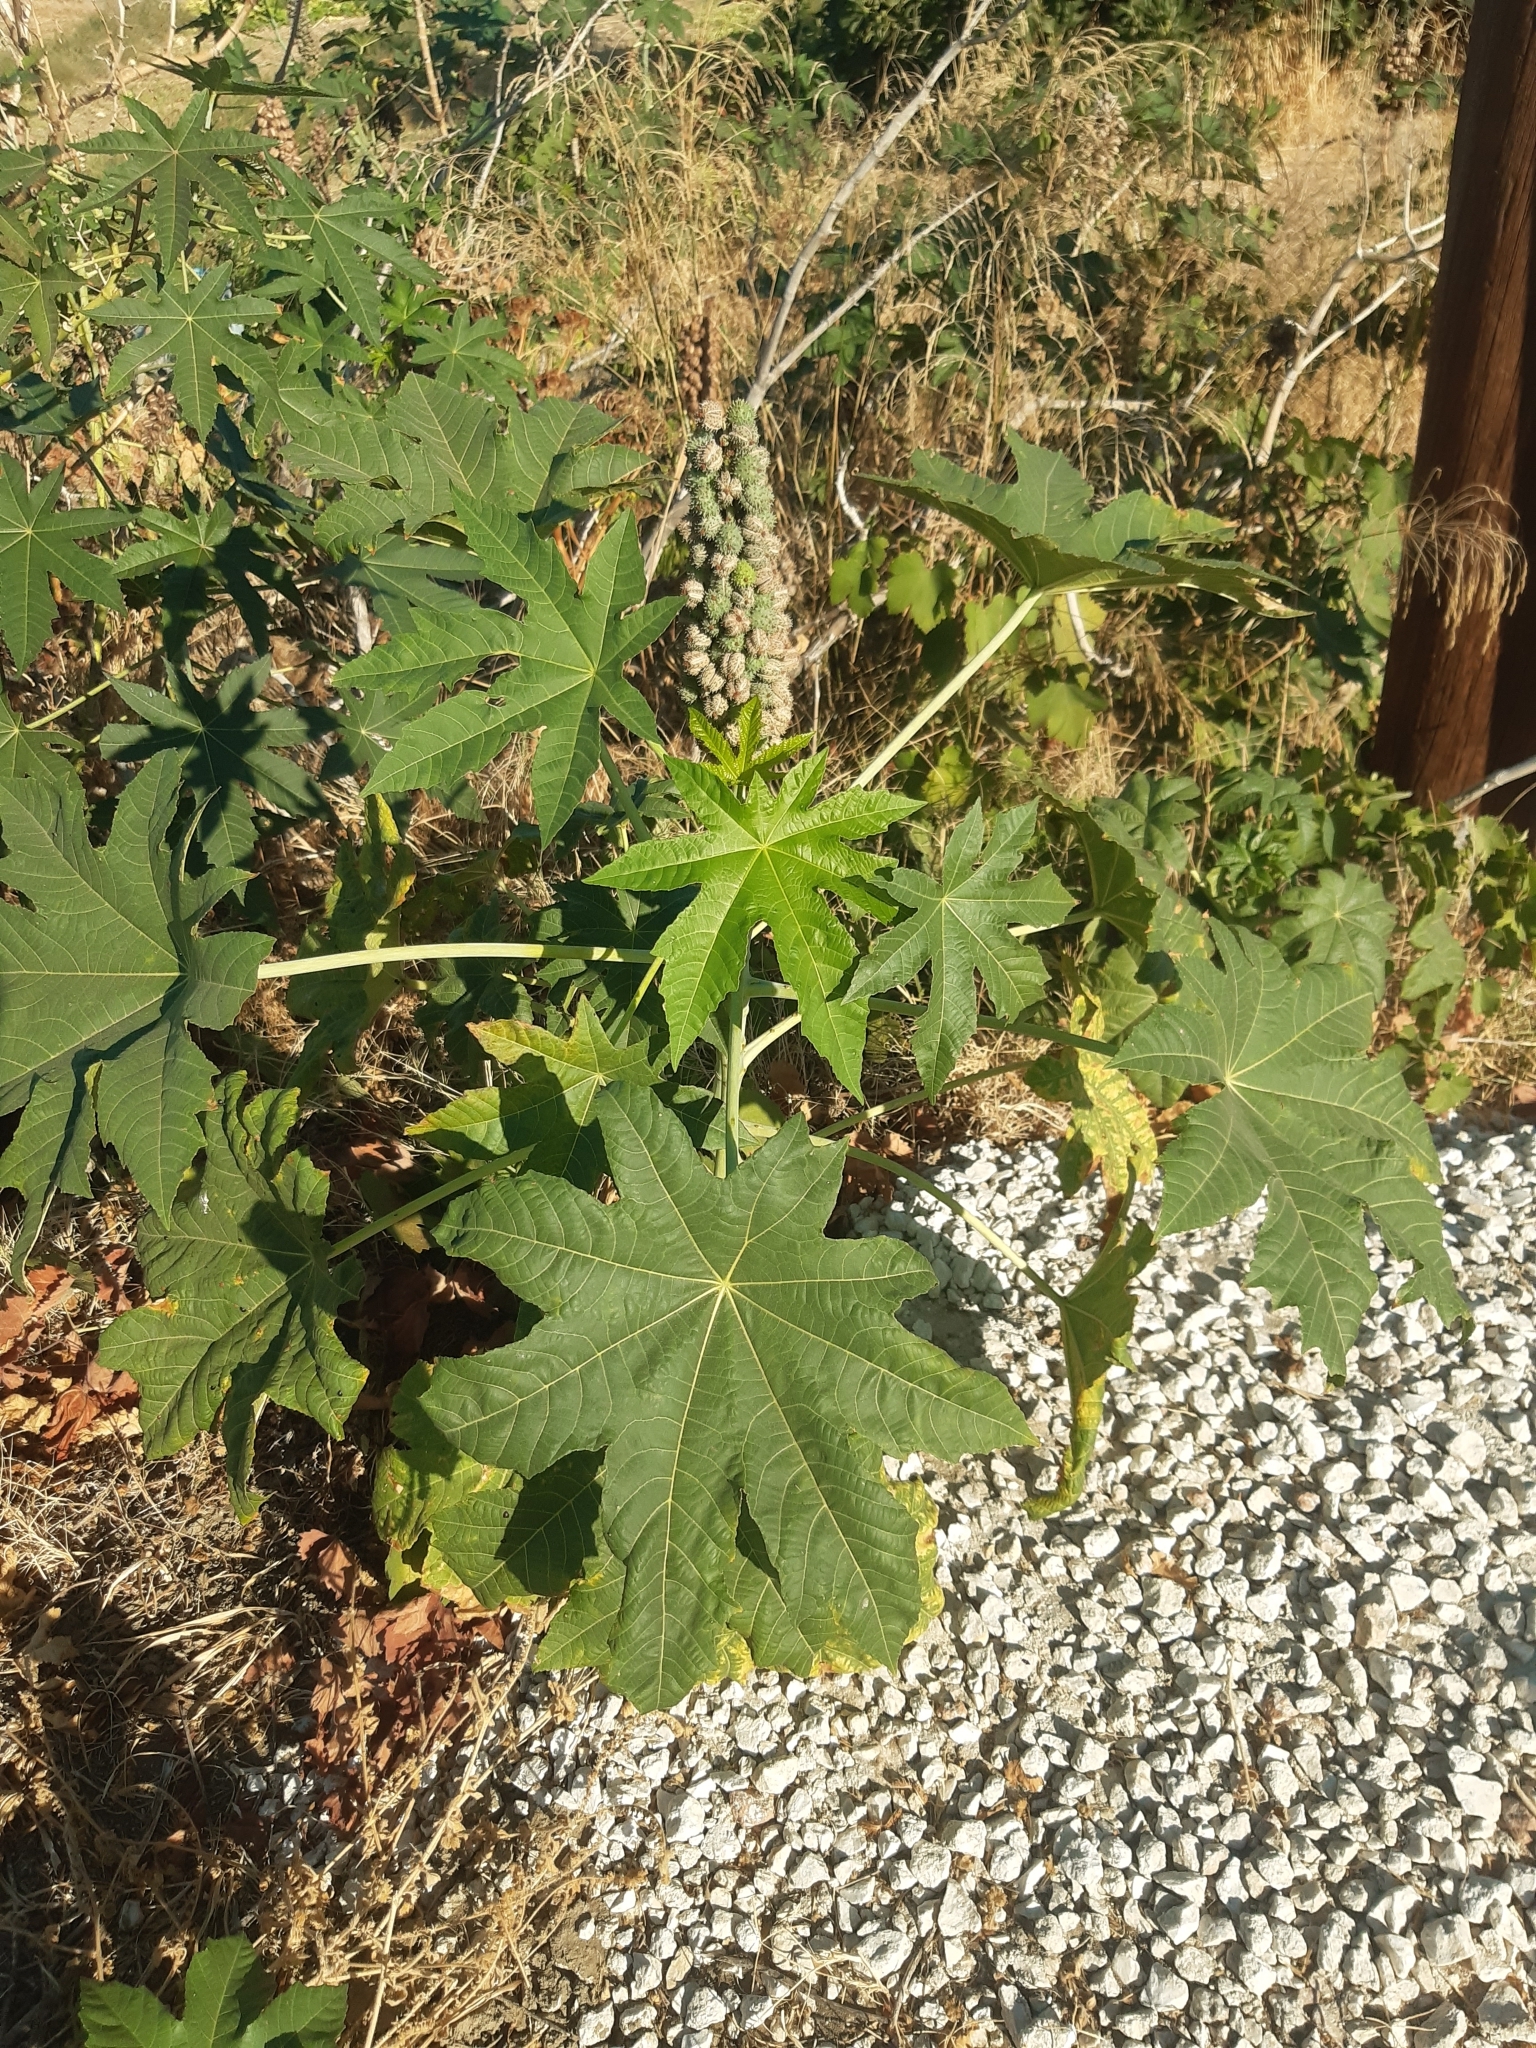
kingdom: Plantae
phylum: Tracheophyta
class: Magnoliopsida
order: Malpighiales
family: Euphorbiaceae
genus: Ricinus
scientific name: Ricinus communis
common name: Castor-oil-plant
